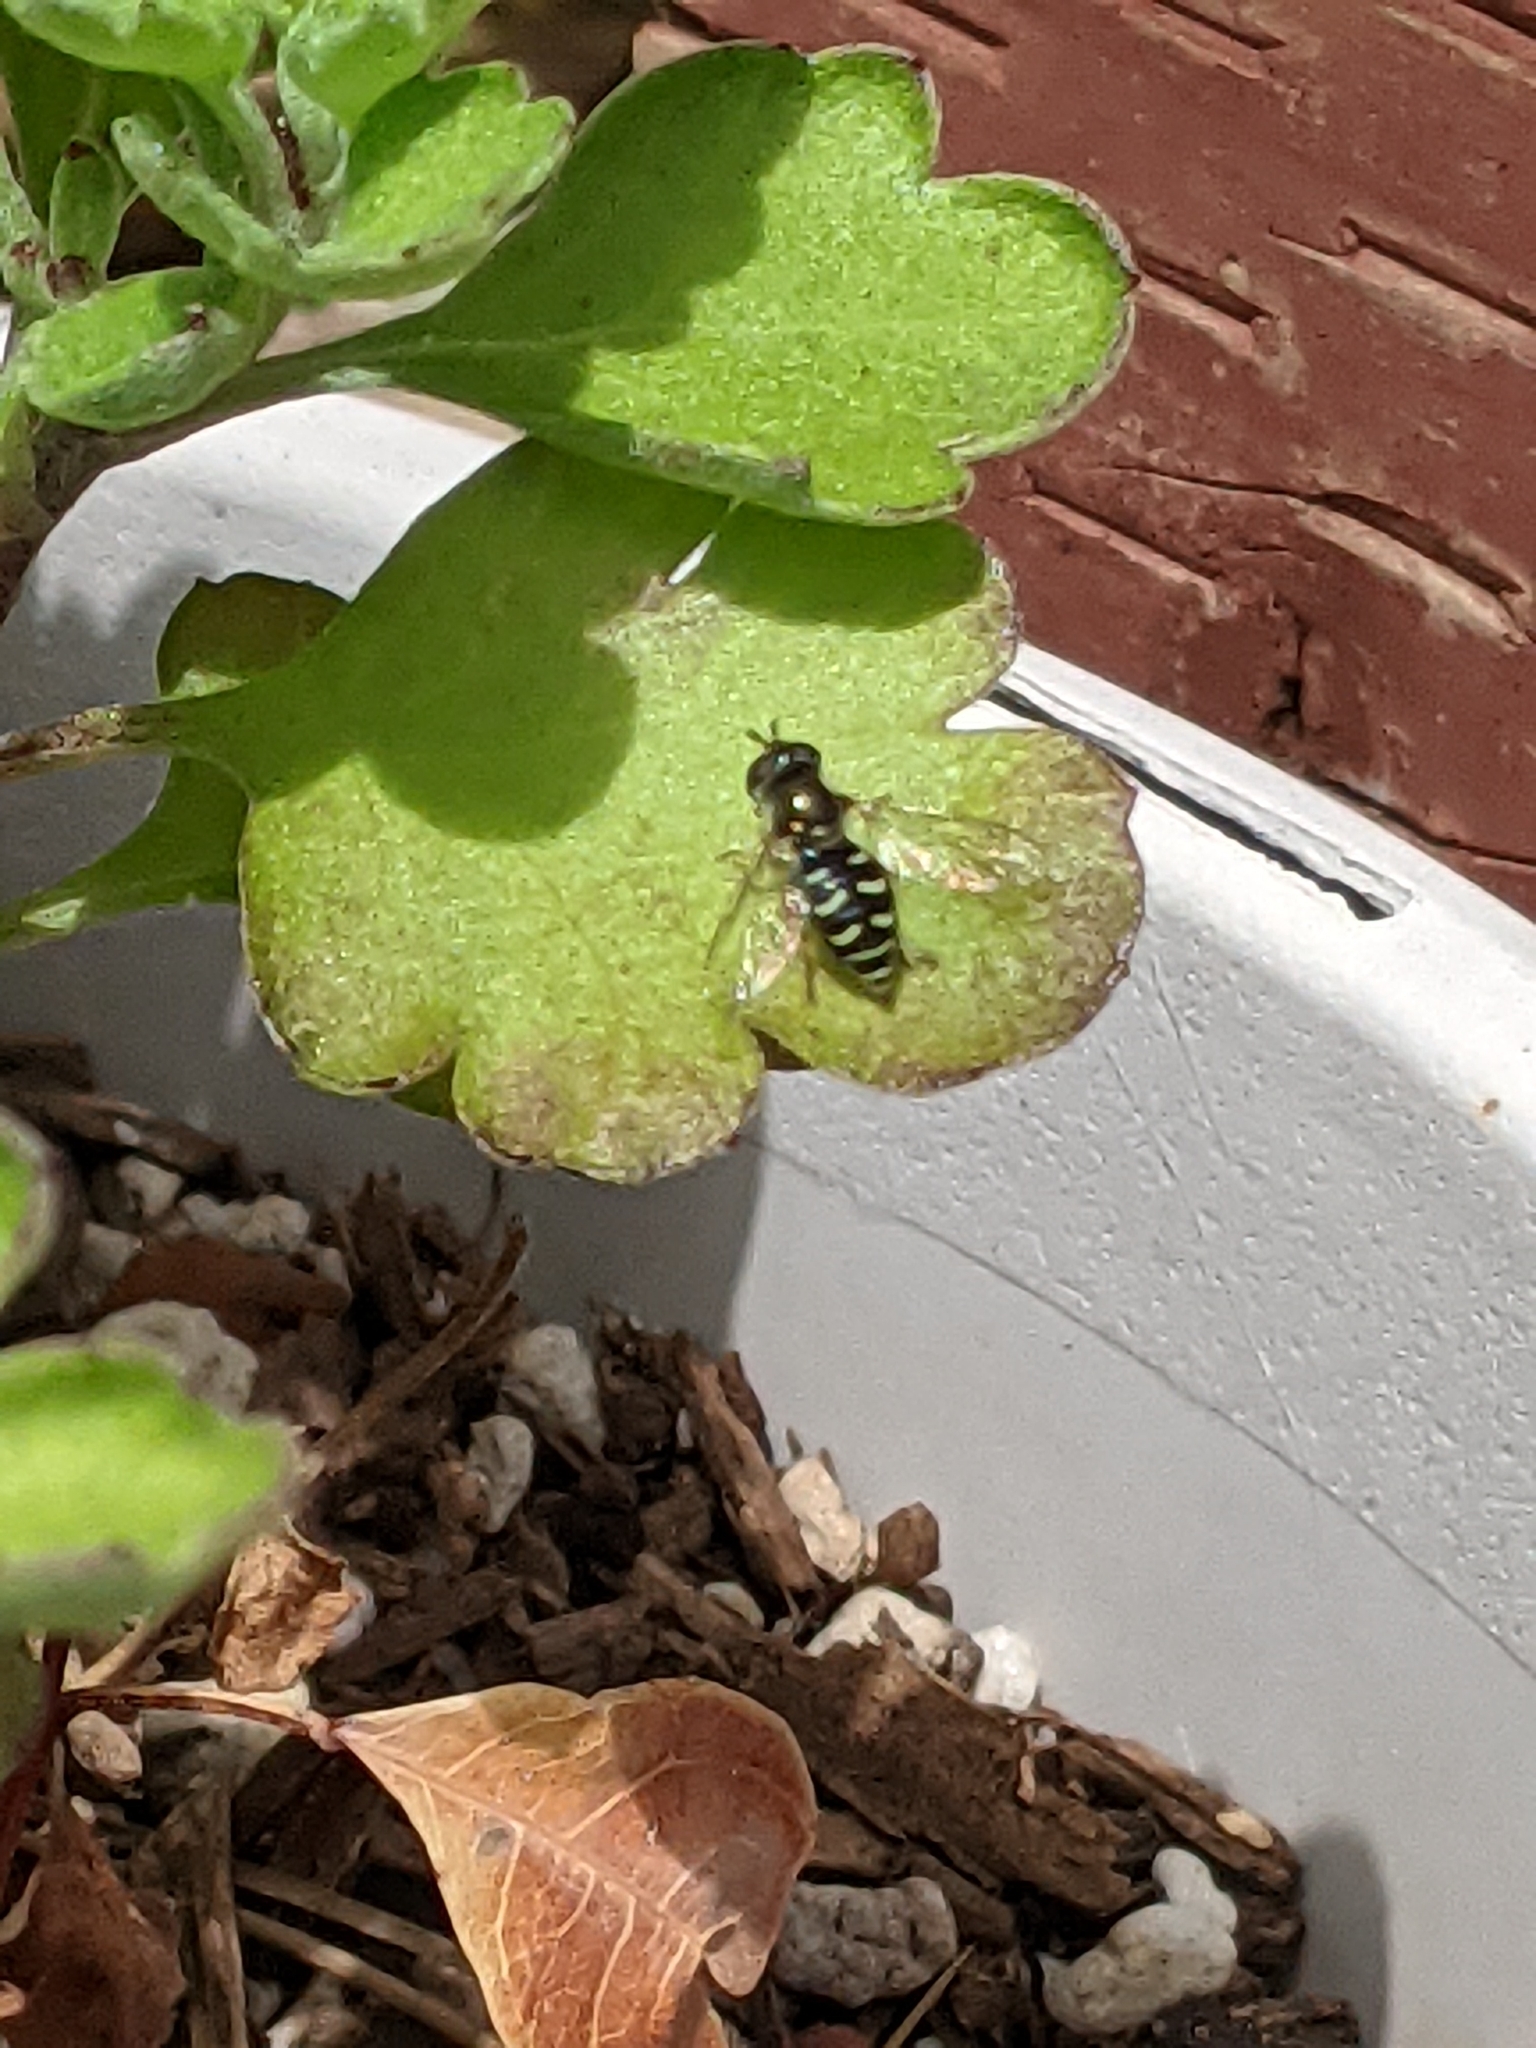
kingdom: Animalia
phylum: Arthropoda
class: Insecta
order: Diptera
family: Syrphidae
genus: Eupeodes
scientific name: Eupeodes volucris
